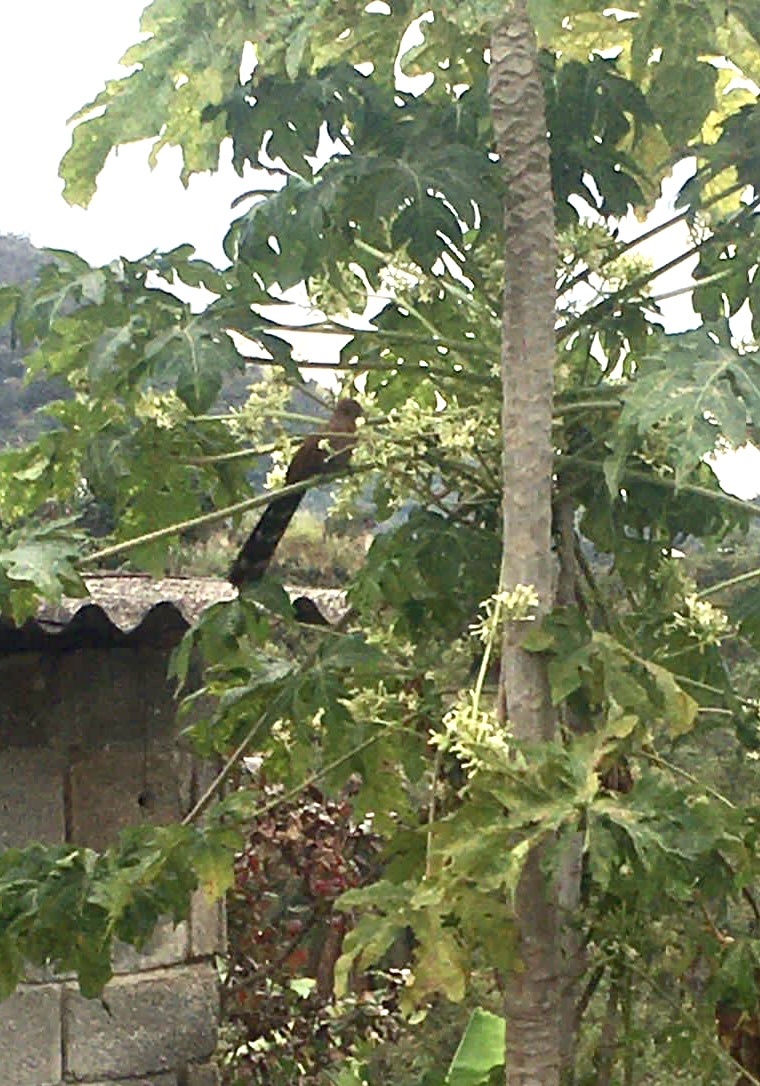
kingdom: Animalia
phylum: Chordata
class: Aves
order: Cuculiformes
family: Cuculidae
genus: Piaya
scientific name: Piaya cayana
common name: Squirrel cuckoo
